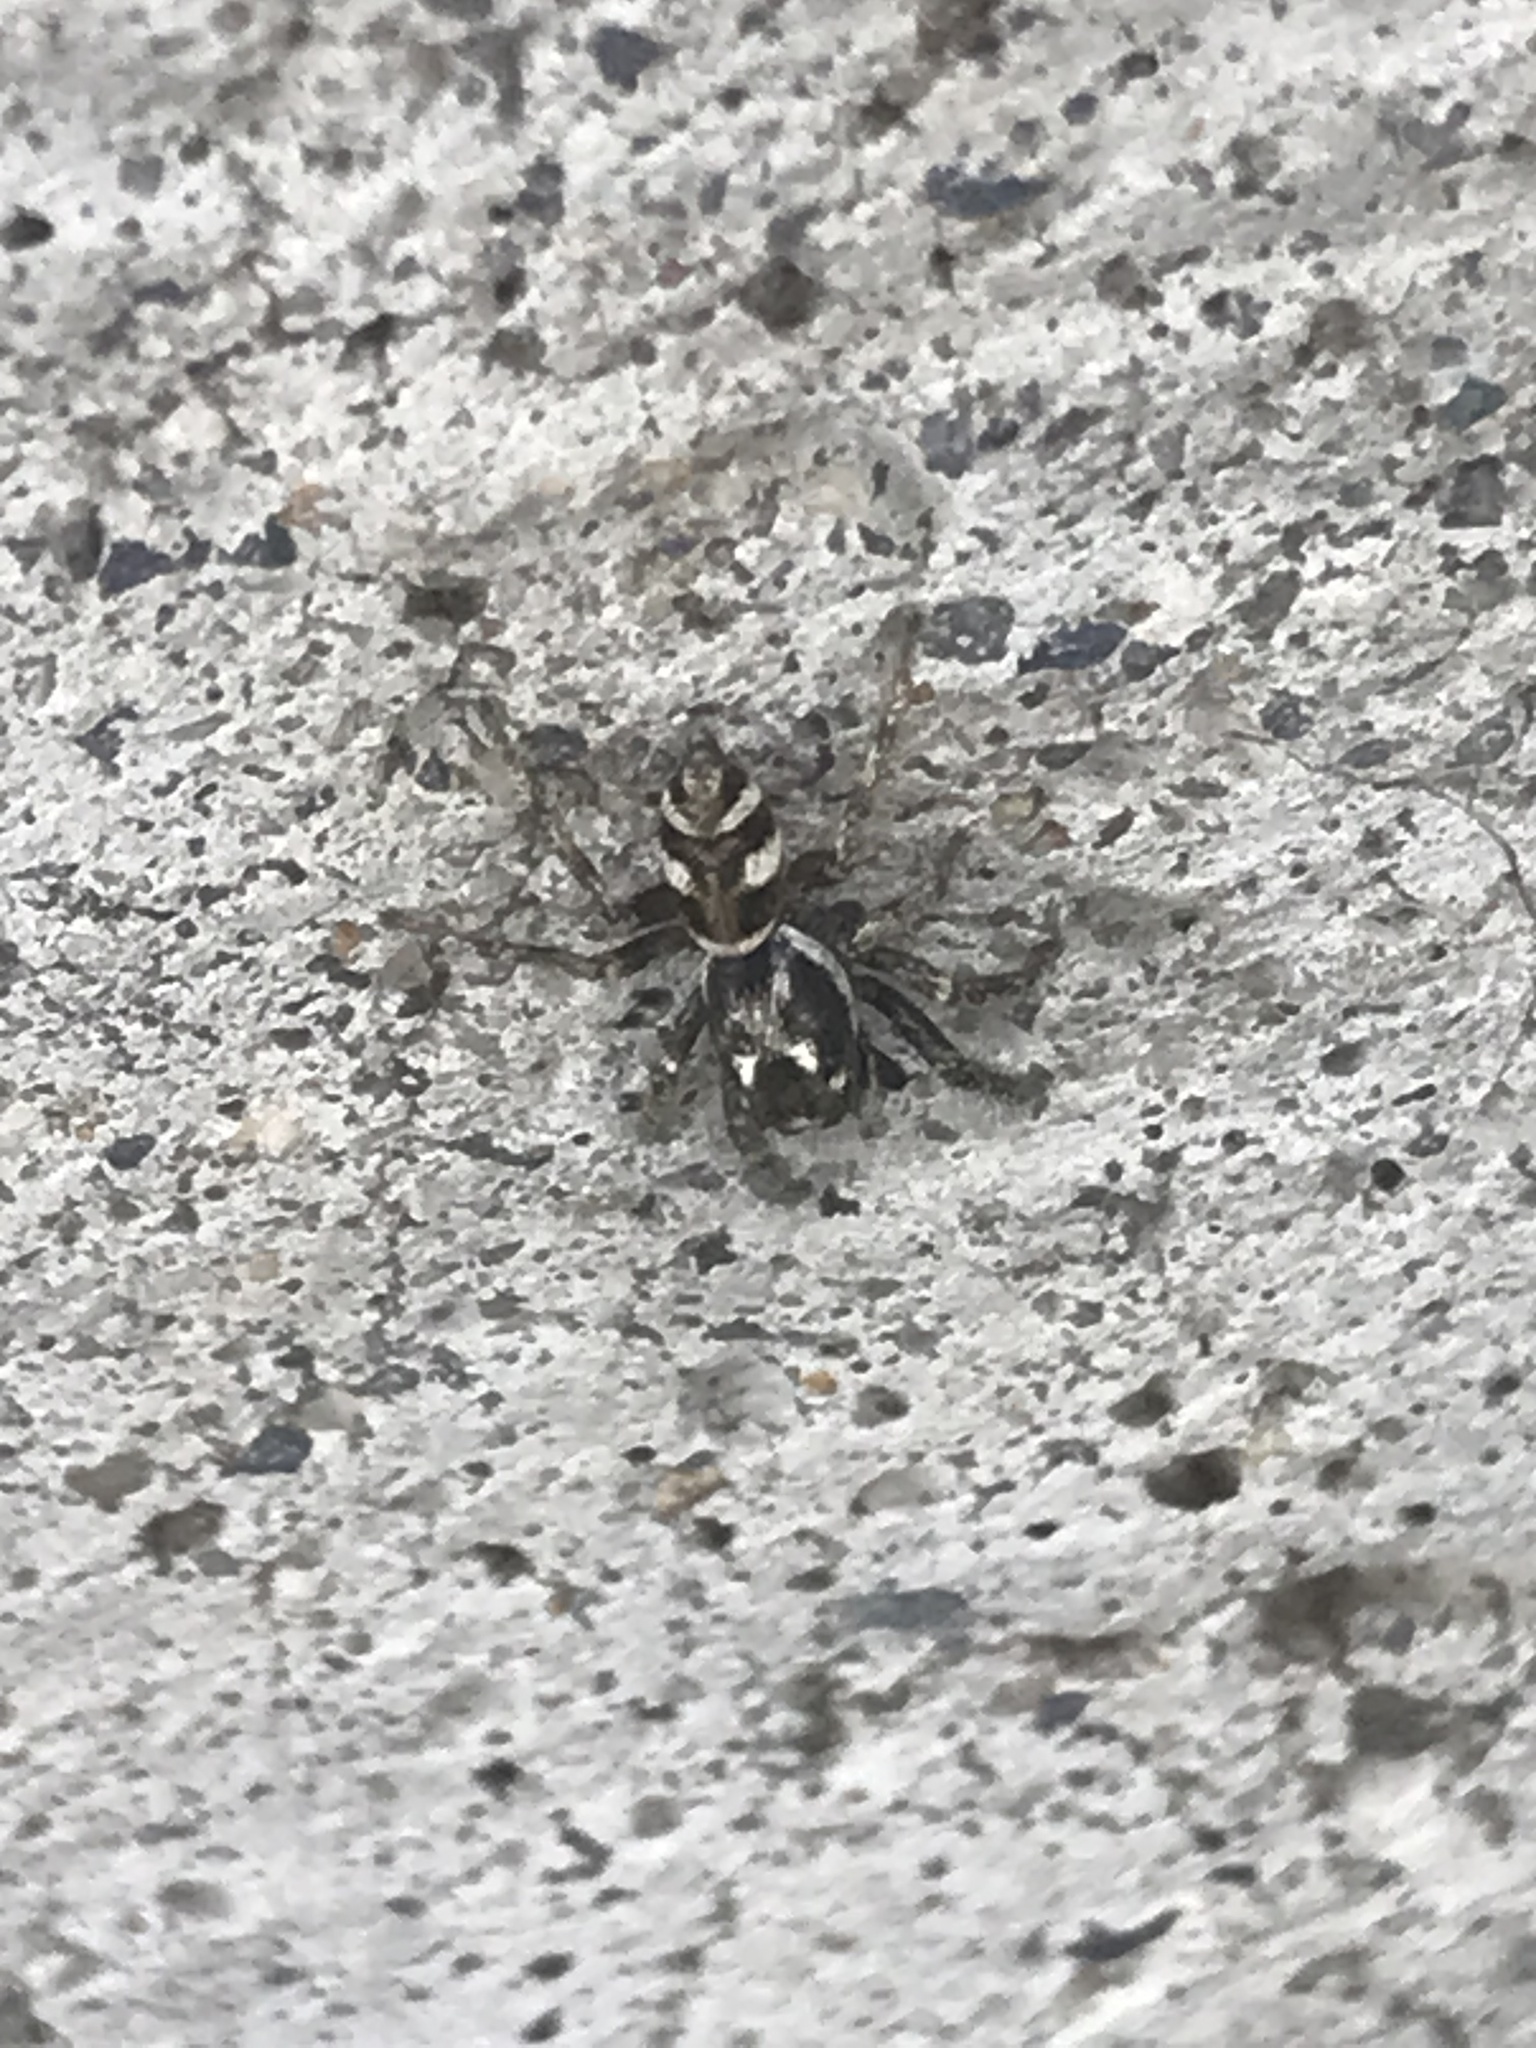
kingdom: Animalia
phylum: Arthropoda
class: Arachnida
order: Araneae
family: Salticidae
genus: Salticus
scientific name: Salticus scenicus
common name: Zebra jumper
